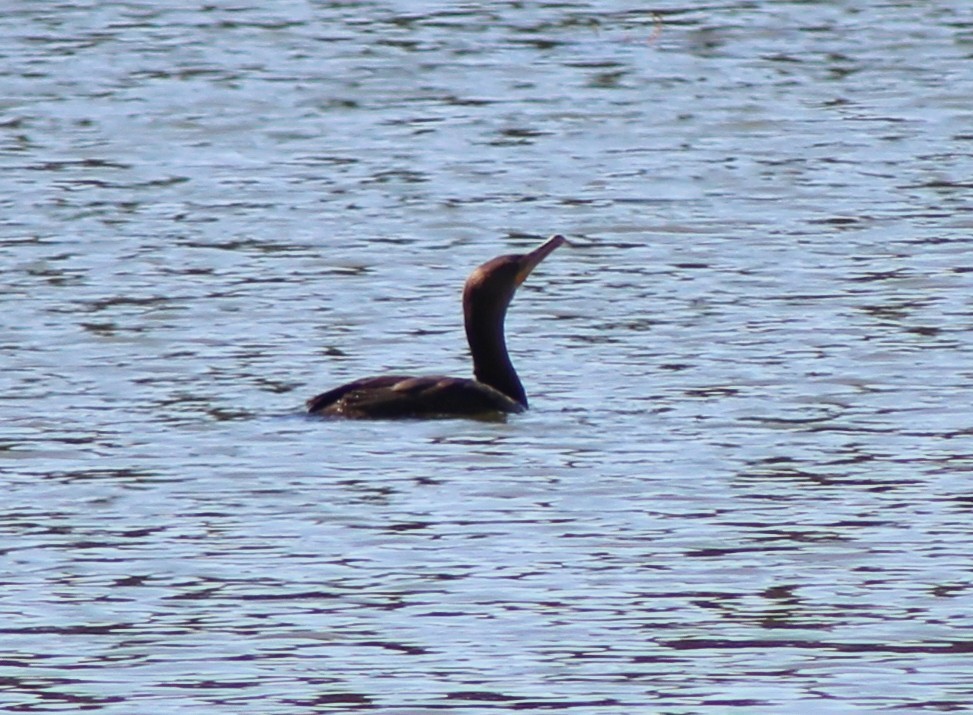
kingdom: Animalia
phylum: Chordata
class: Aves
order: Suliformes
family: Phalacrocoracidae
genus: Phalacrocorax
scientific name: Phalacrocorax auritus
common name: Double-crested cormorant
